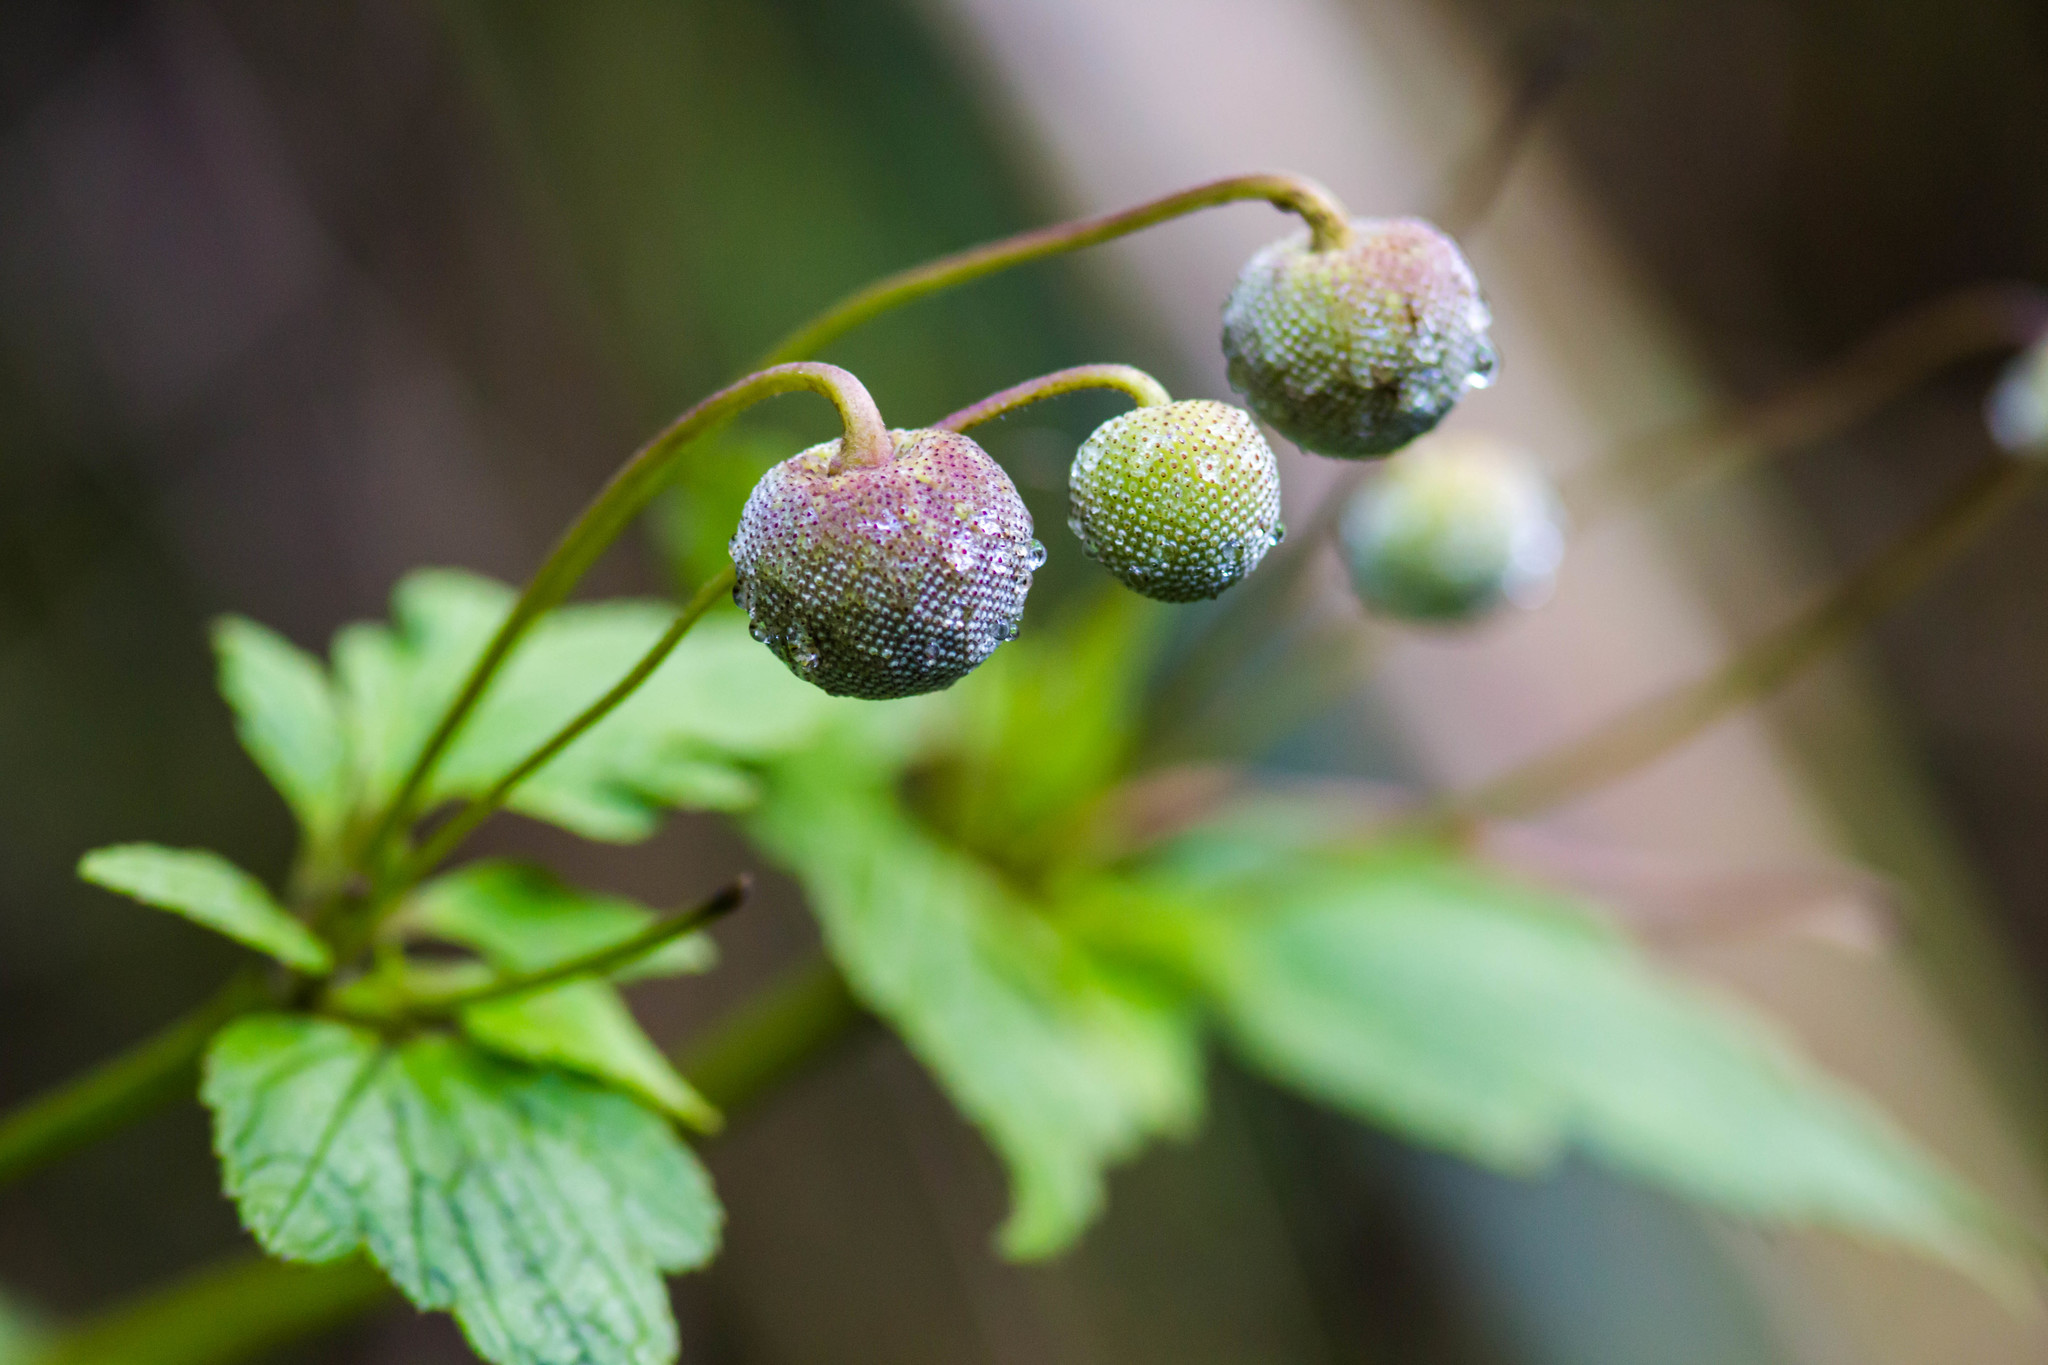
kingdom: Plantae
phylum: Tracheophyta
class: Magnoliopsida
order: Ranunculales
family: Ranunculaceae
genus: Eriocapitella
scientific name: Eriocapitella japonica
